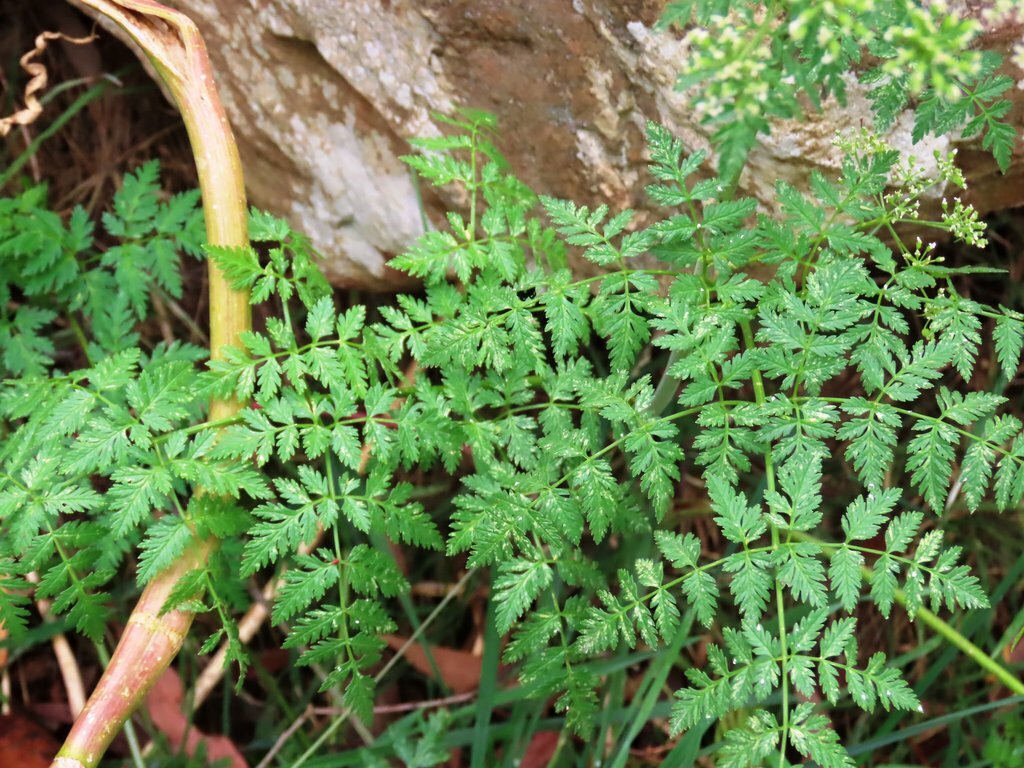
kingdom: Plantae
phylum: Tracheophyta
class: Magnoliopsida
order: Apiales
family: Apiaceae
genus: Conium
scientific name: Conium maculatum
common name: Hemlock
